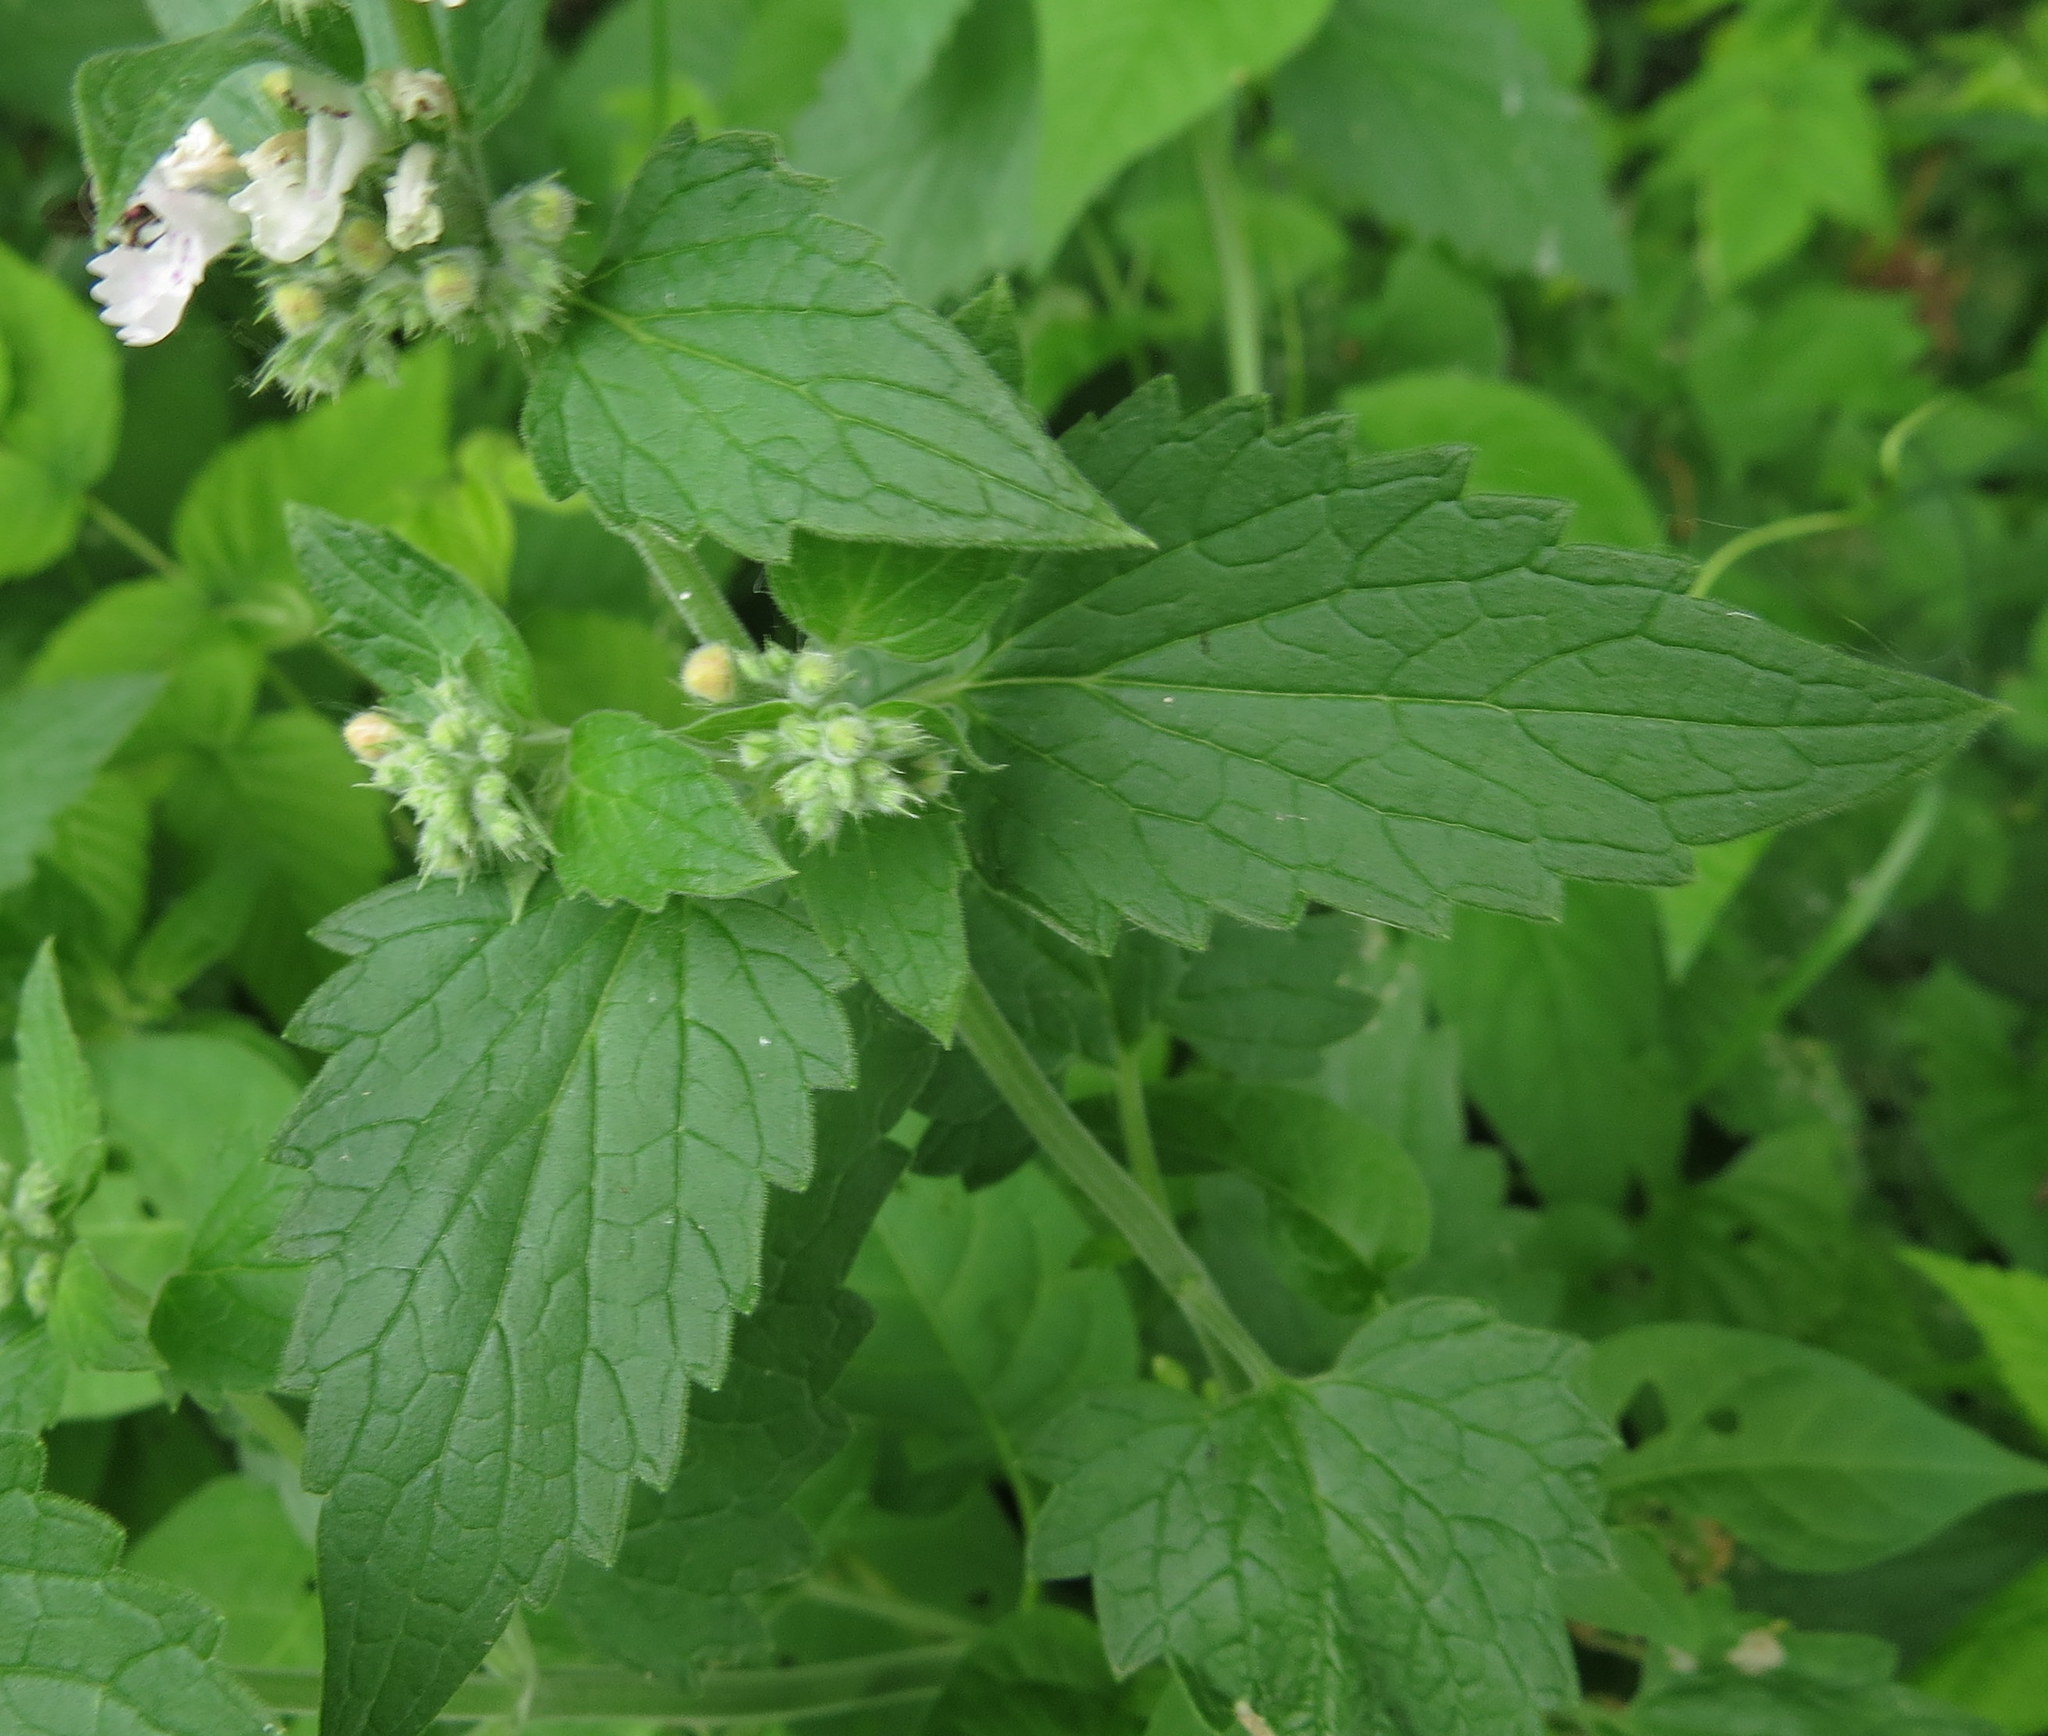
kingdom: Plantae
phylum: Tracheophyta
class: Magnoliopsida
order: Lamiales
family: Lamiaceae
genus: Nepeta
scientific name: Nepeta cataria
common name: Catnip
